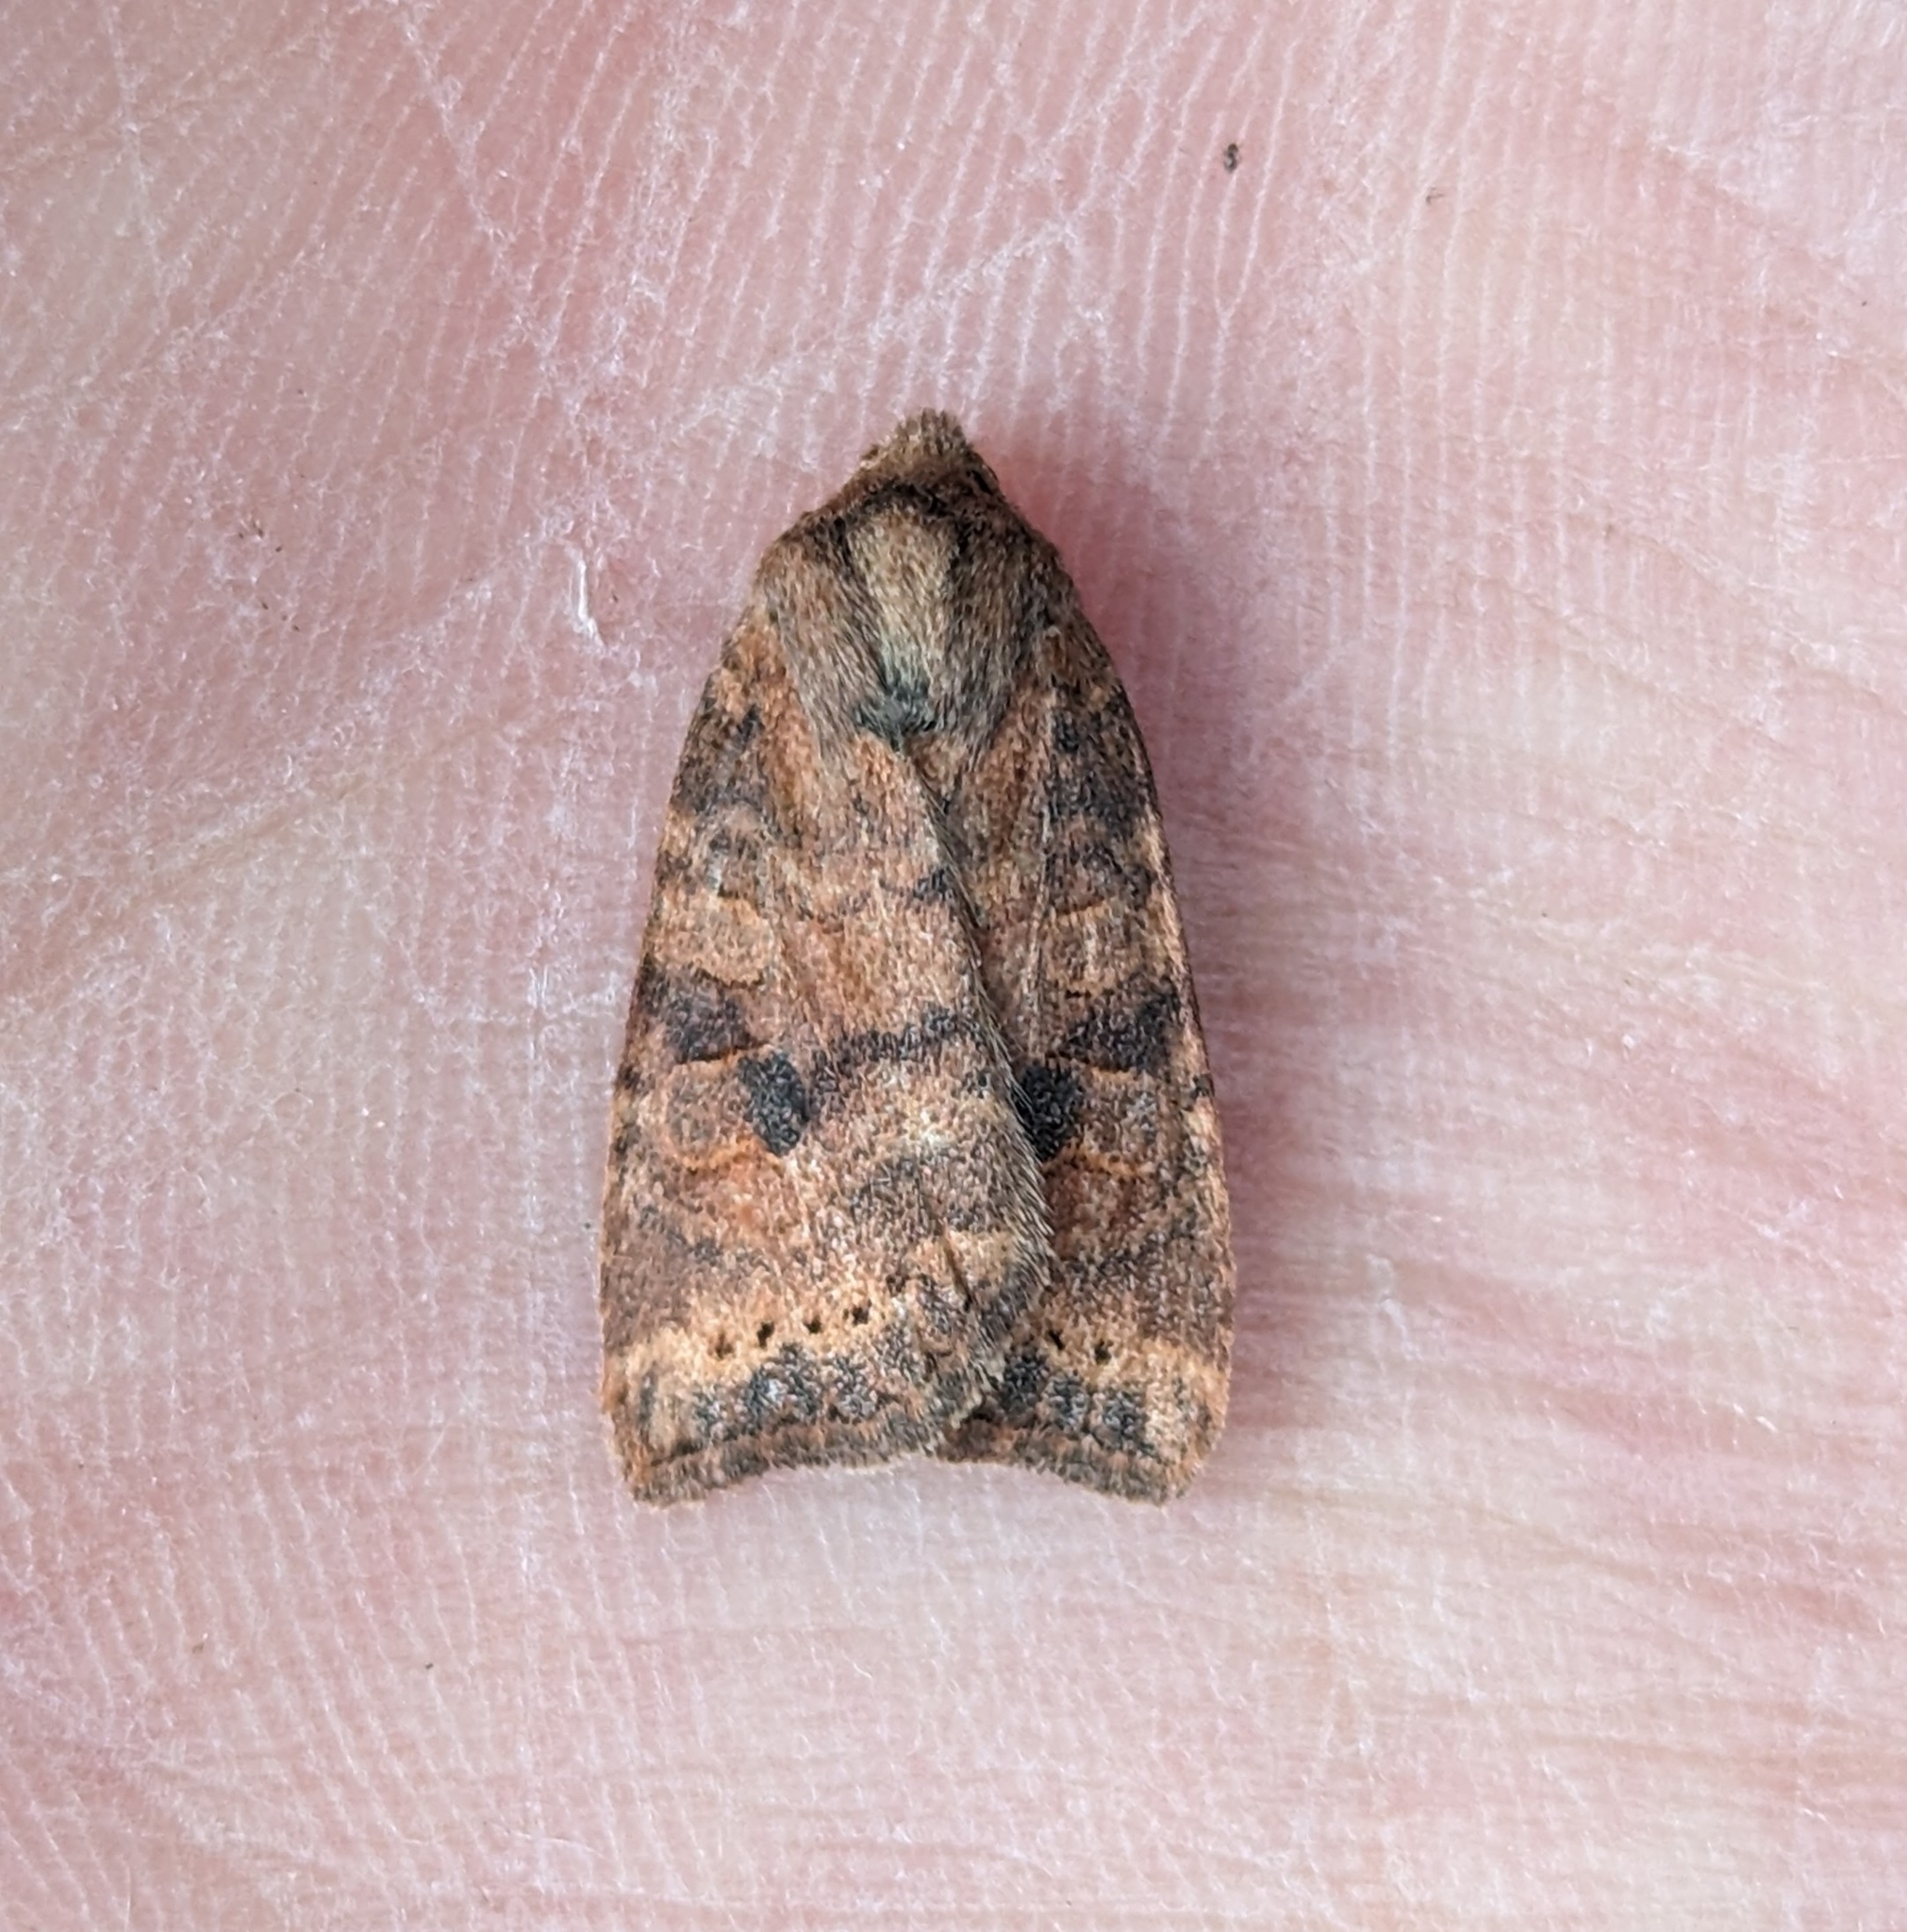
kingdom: Animalia
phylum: Arthropoda
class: Insecta
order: Lepidoptera
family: Noctuidae
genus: Anathix
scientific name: Anathix puta
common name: Puta sallow
